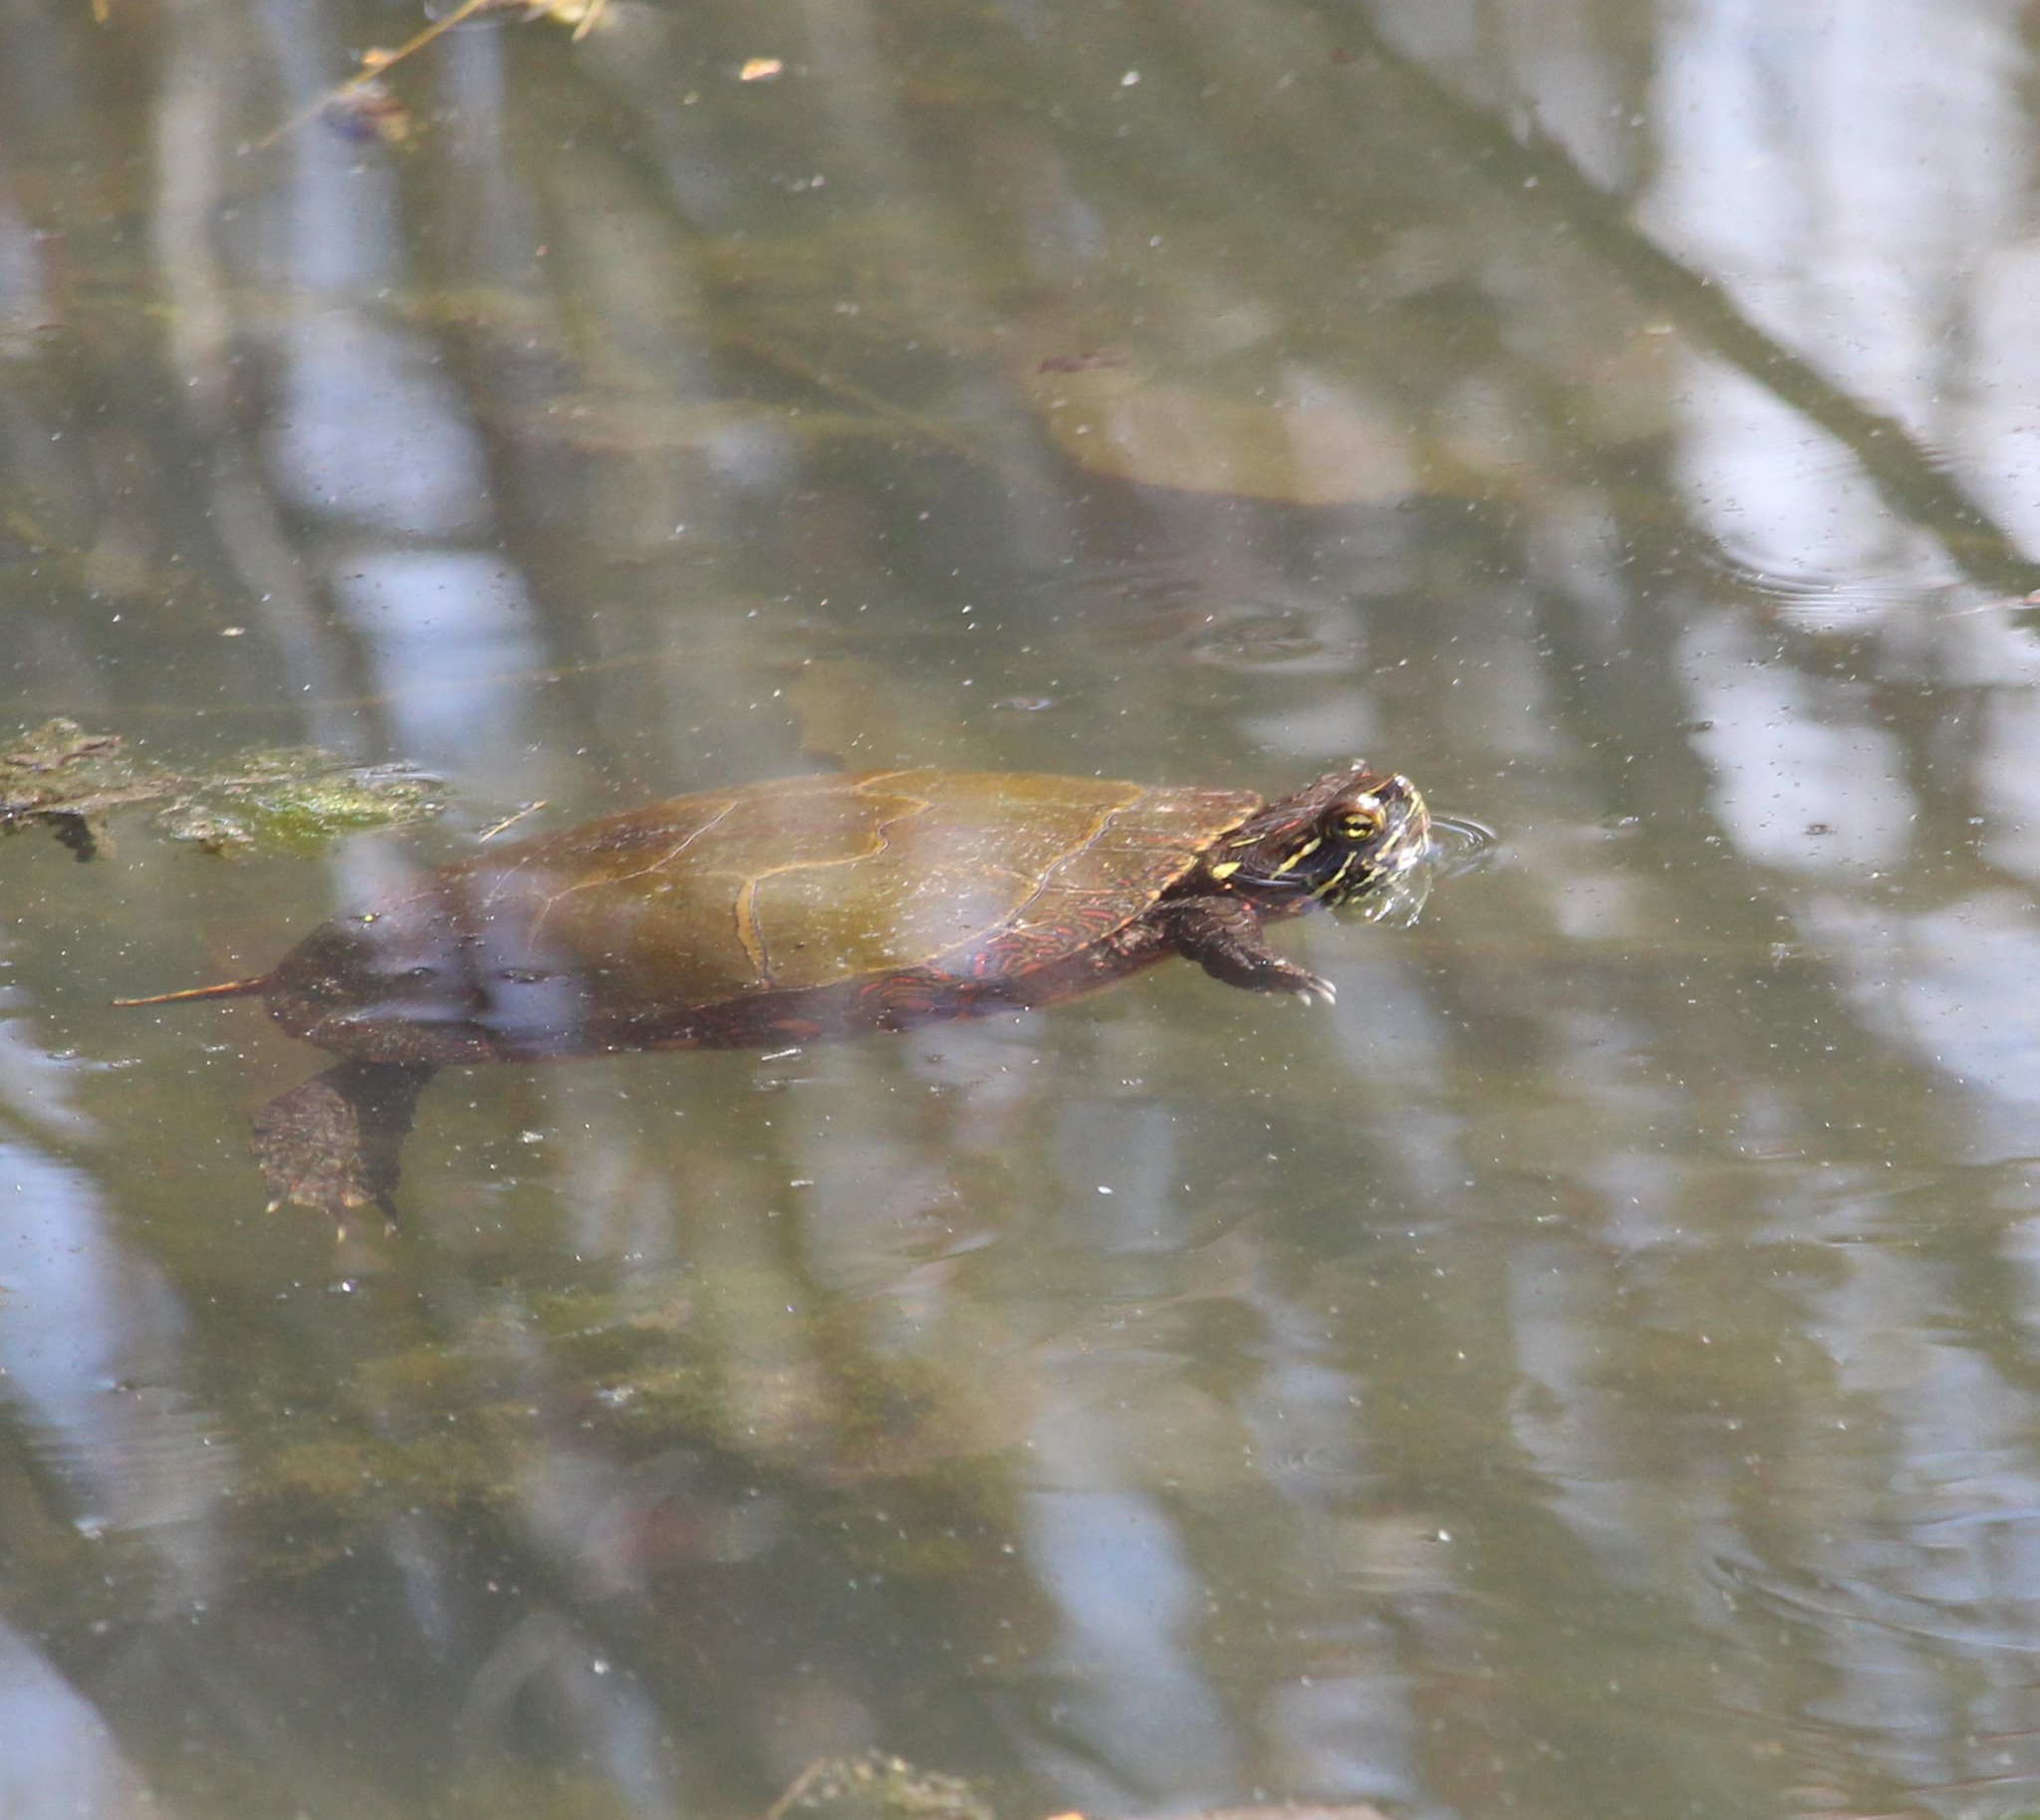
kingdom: Animalia
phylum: Chordata
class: Testudines
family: Emydidae
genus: Chrysemys
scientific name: Chrysemys picta
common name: Painted turtle
